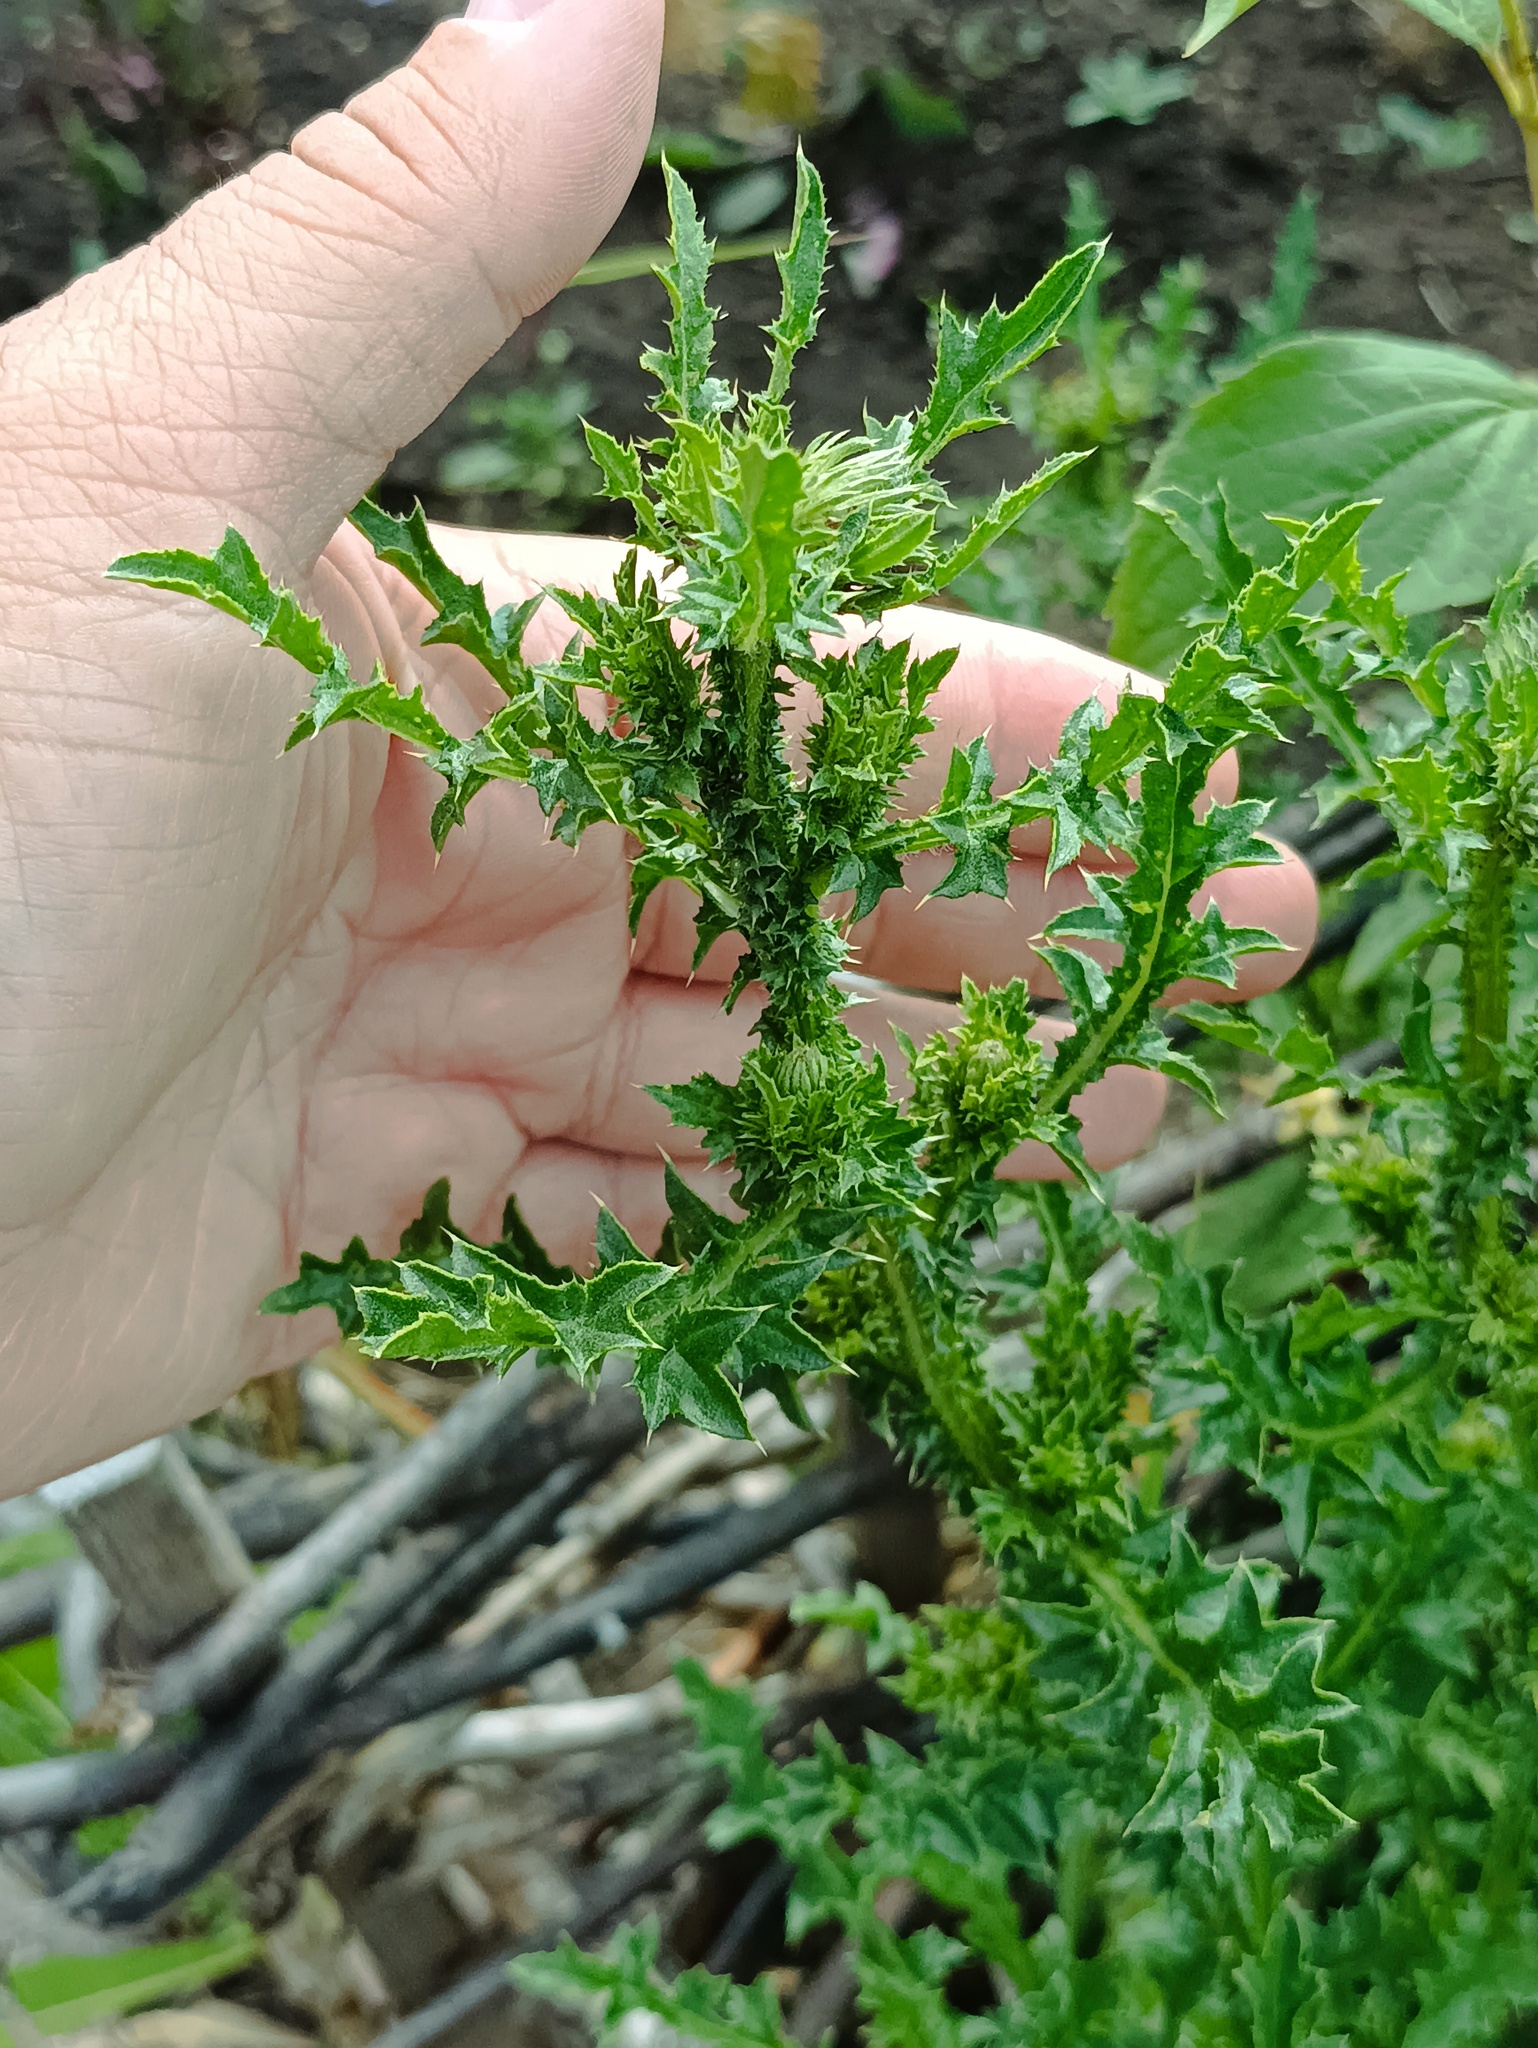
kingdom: Plantae
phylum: Tracheophyta
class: Magnoliopsida
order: Asterales
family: Asteraceae
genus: Carduus
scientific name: Carduus acanthoides
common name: Plumeless thistle
